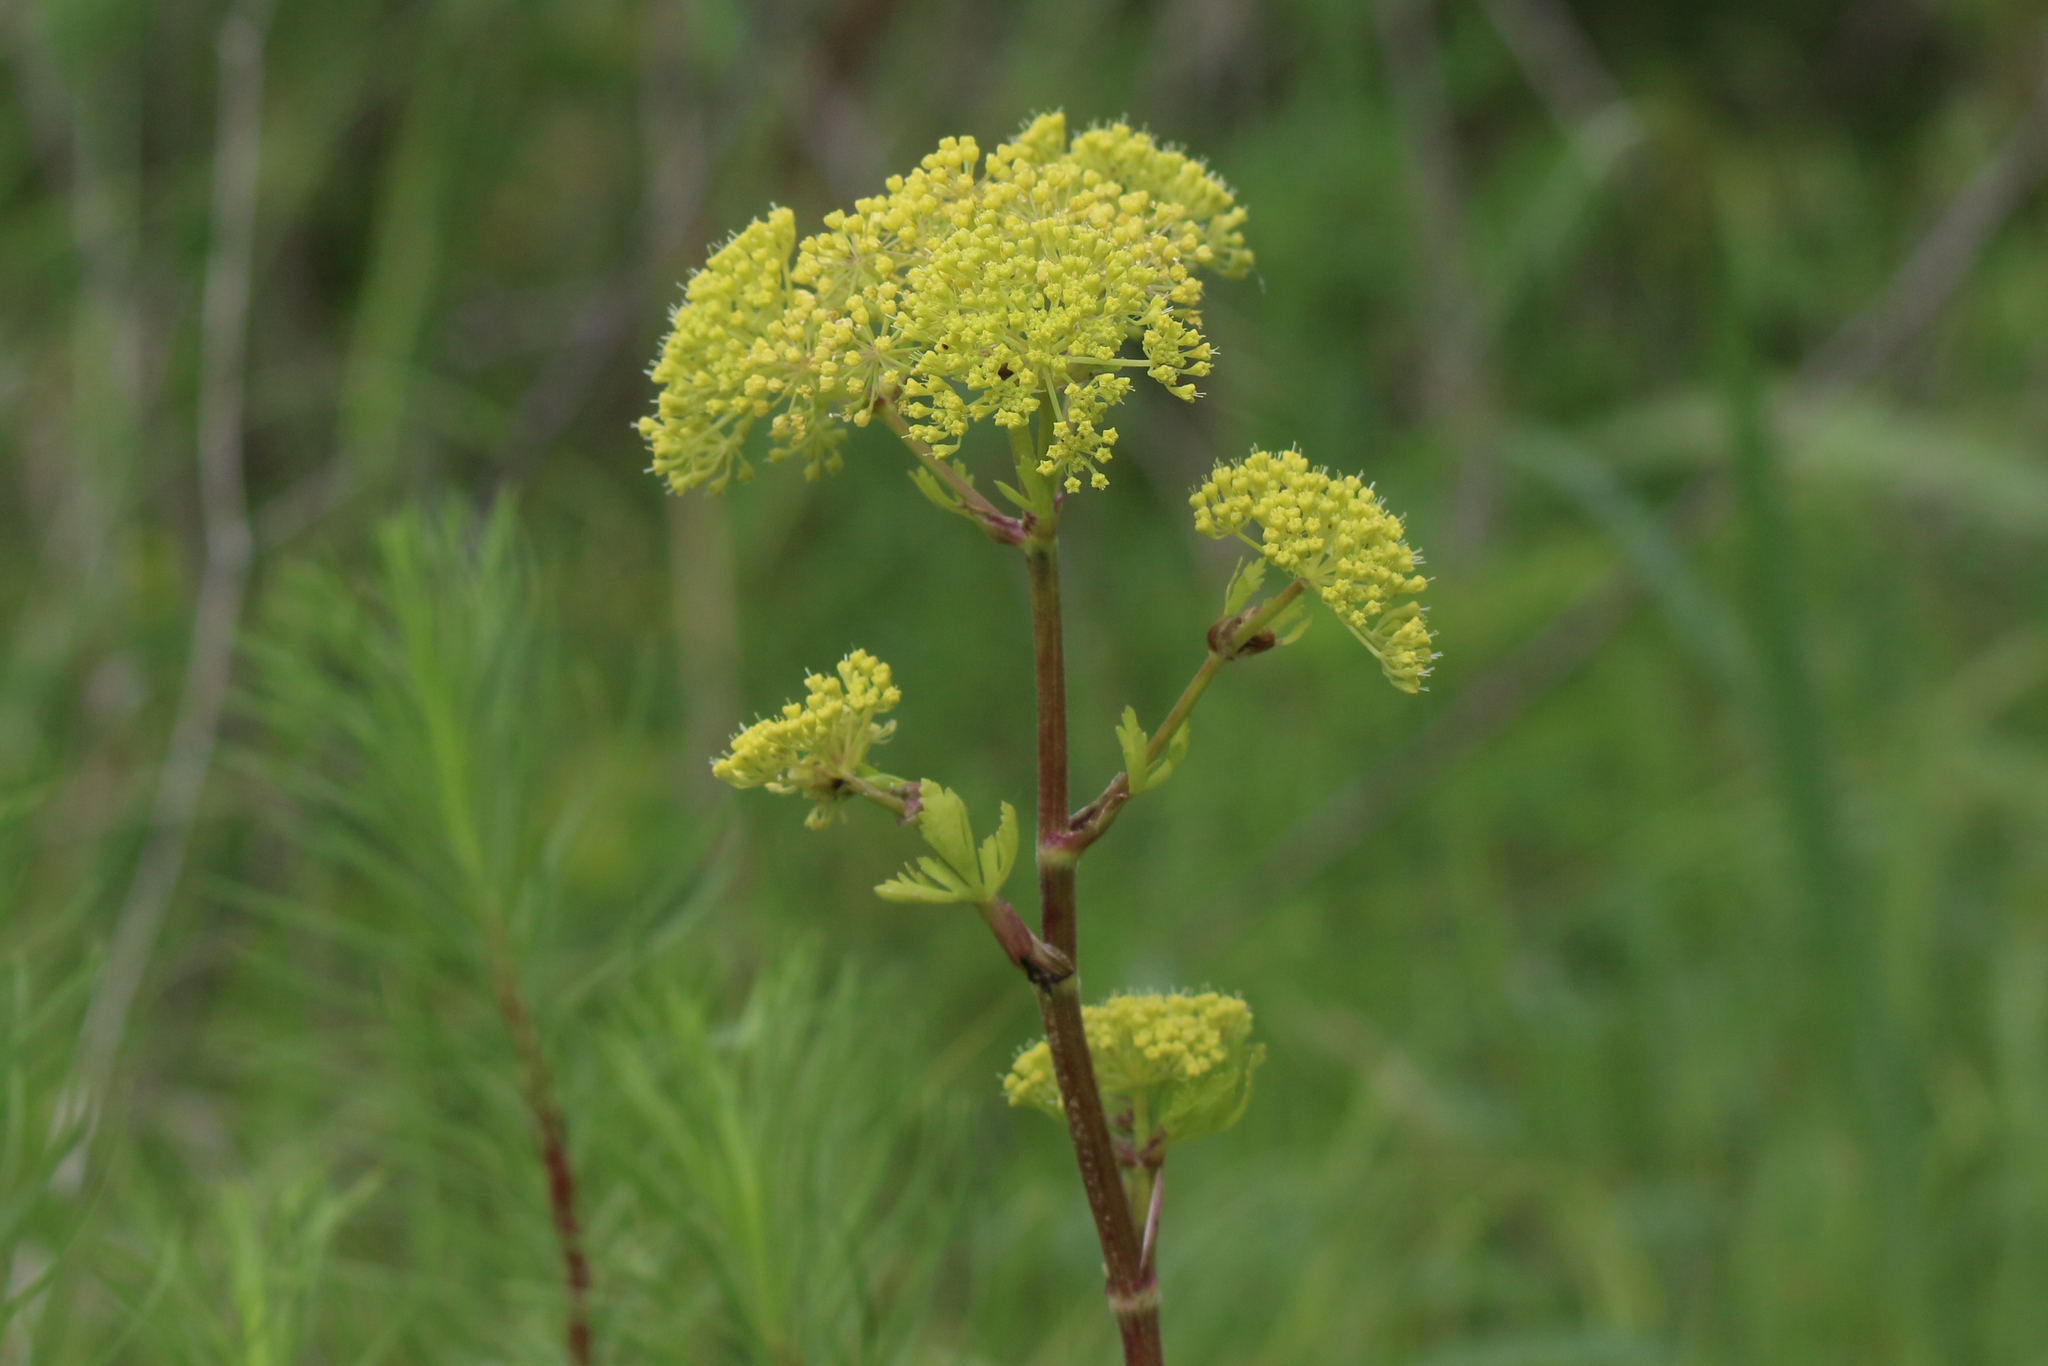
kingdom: Plantae
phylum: Tracheophyta
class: Magnoliopsida
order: Apiales
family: Apiaceae
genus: Polytaenia
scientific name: Polytaenia texana
